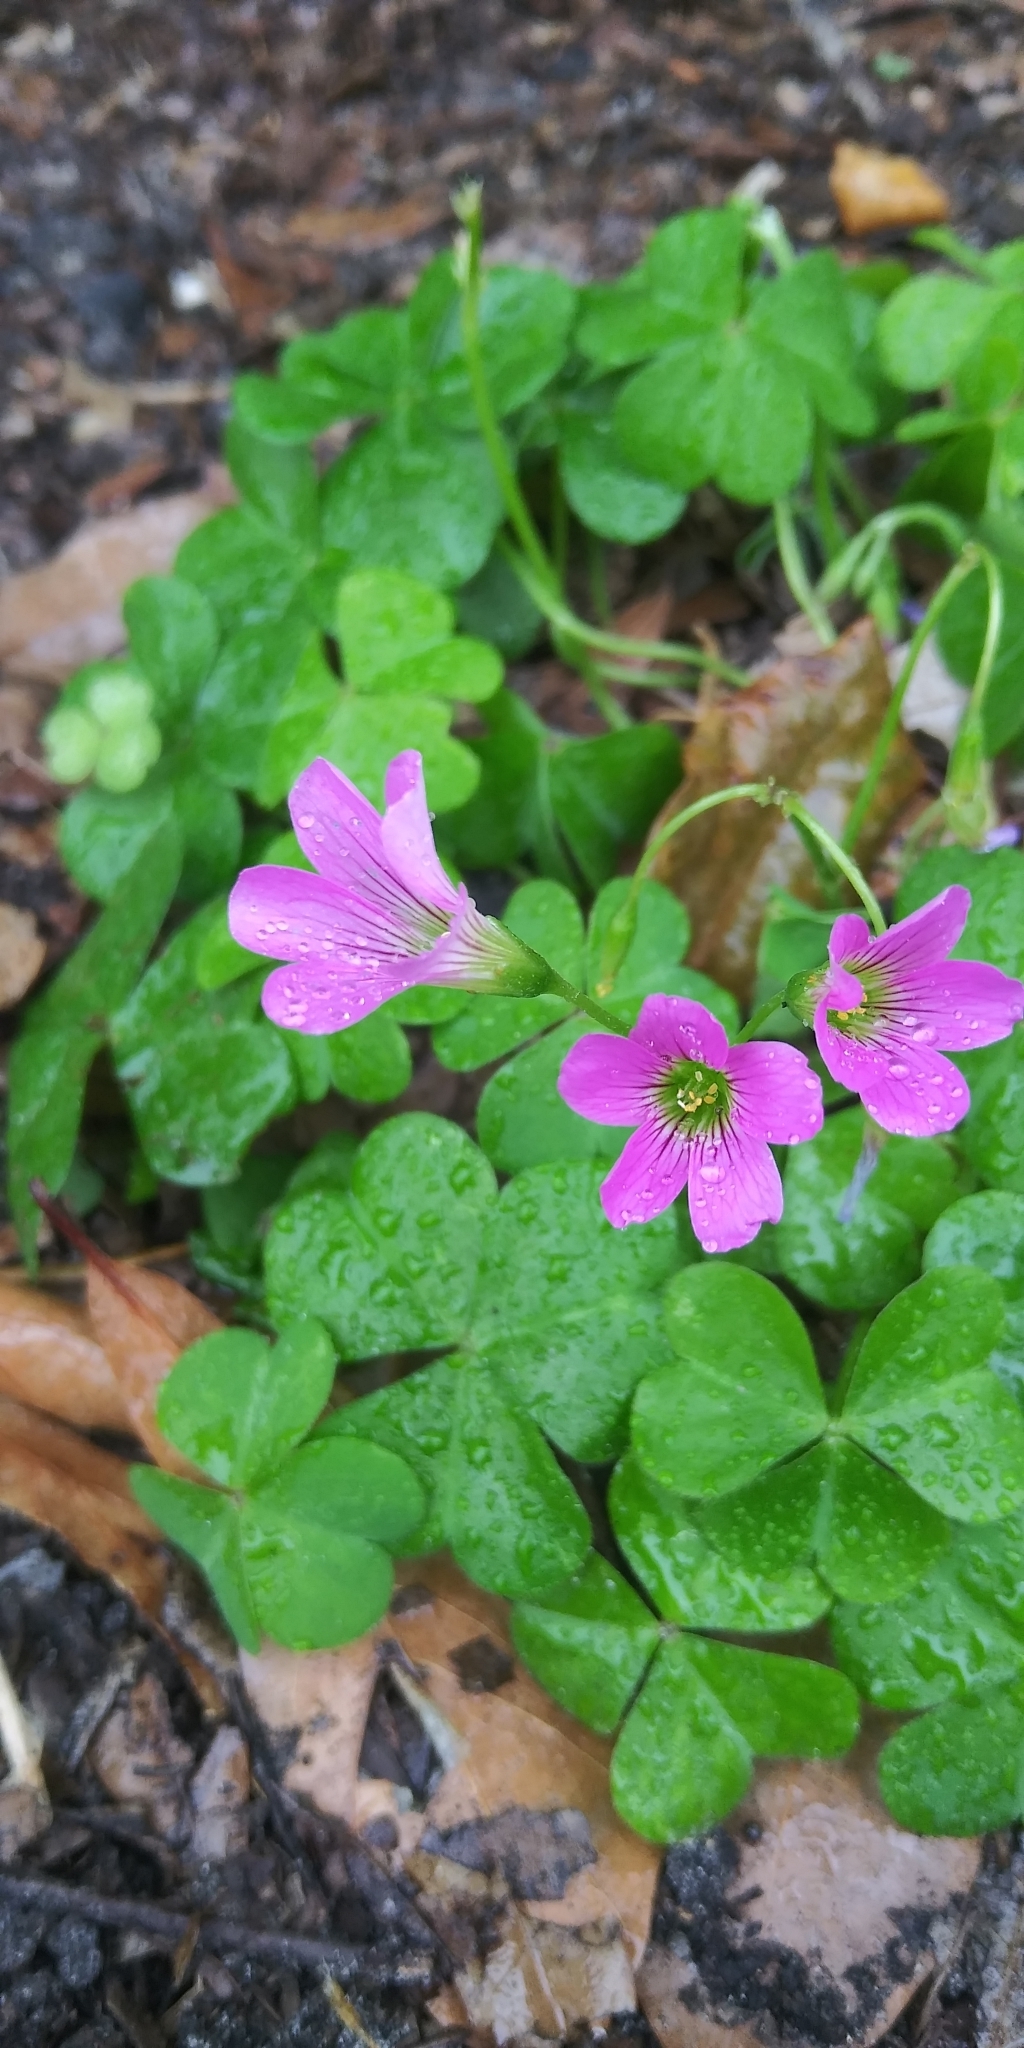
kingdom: Plantae
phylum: Tracheophyta
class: Magnoliopsida
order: Oxalidales
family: Oxalidaceae
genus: Oxalis
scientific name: Oxalis debilis
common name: Large-flowered pink-sorrel
